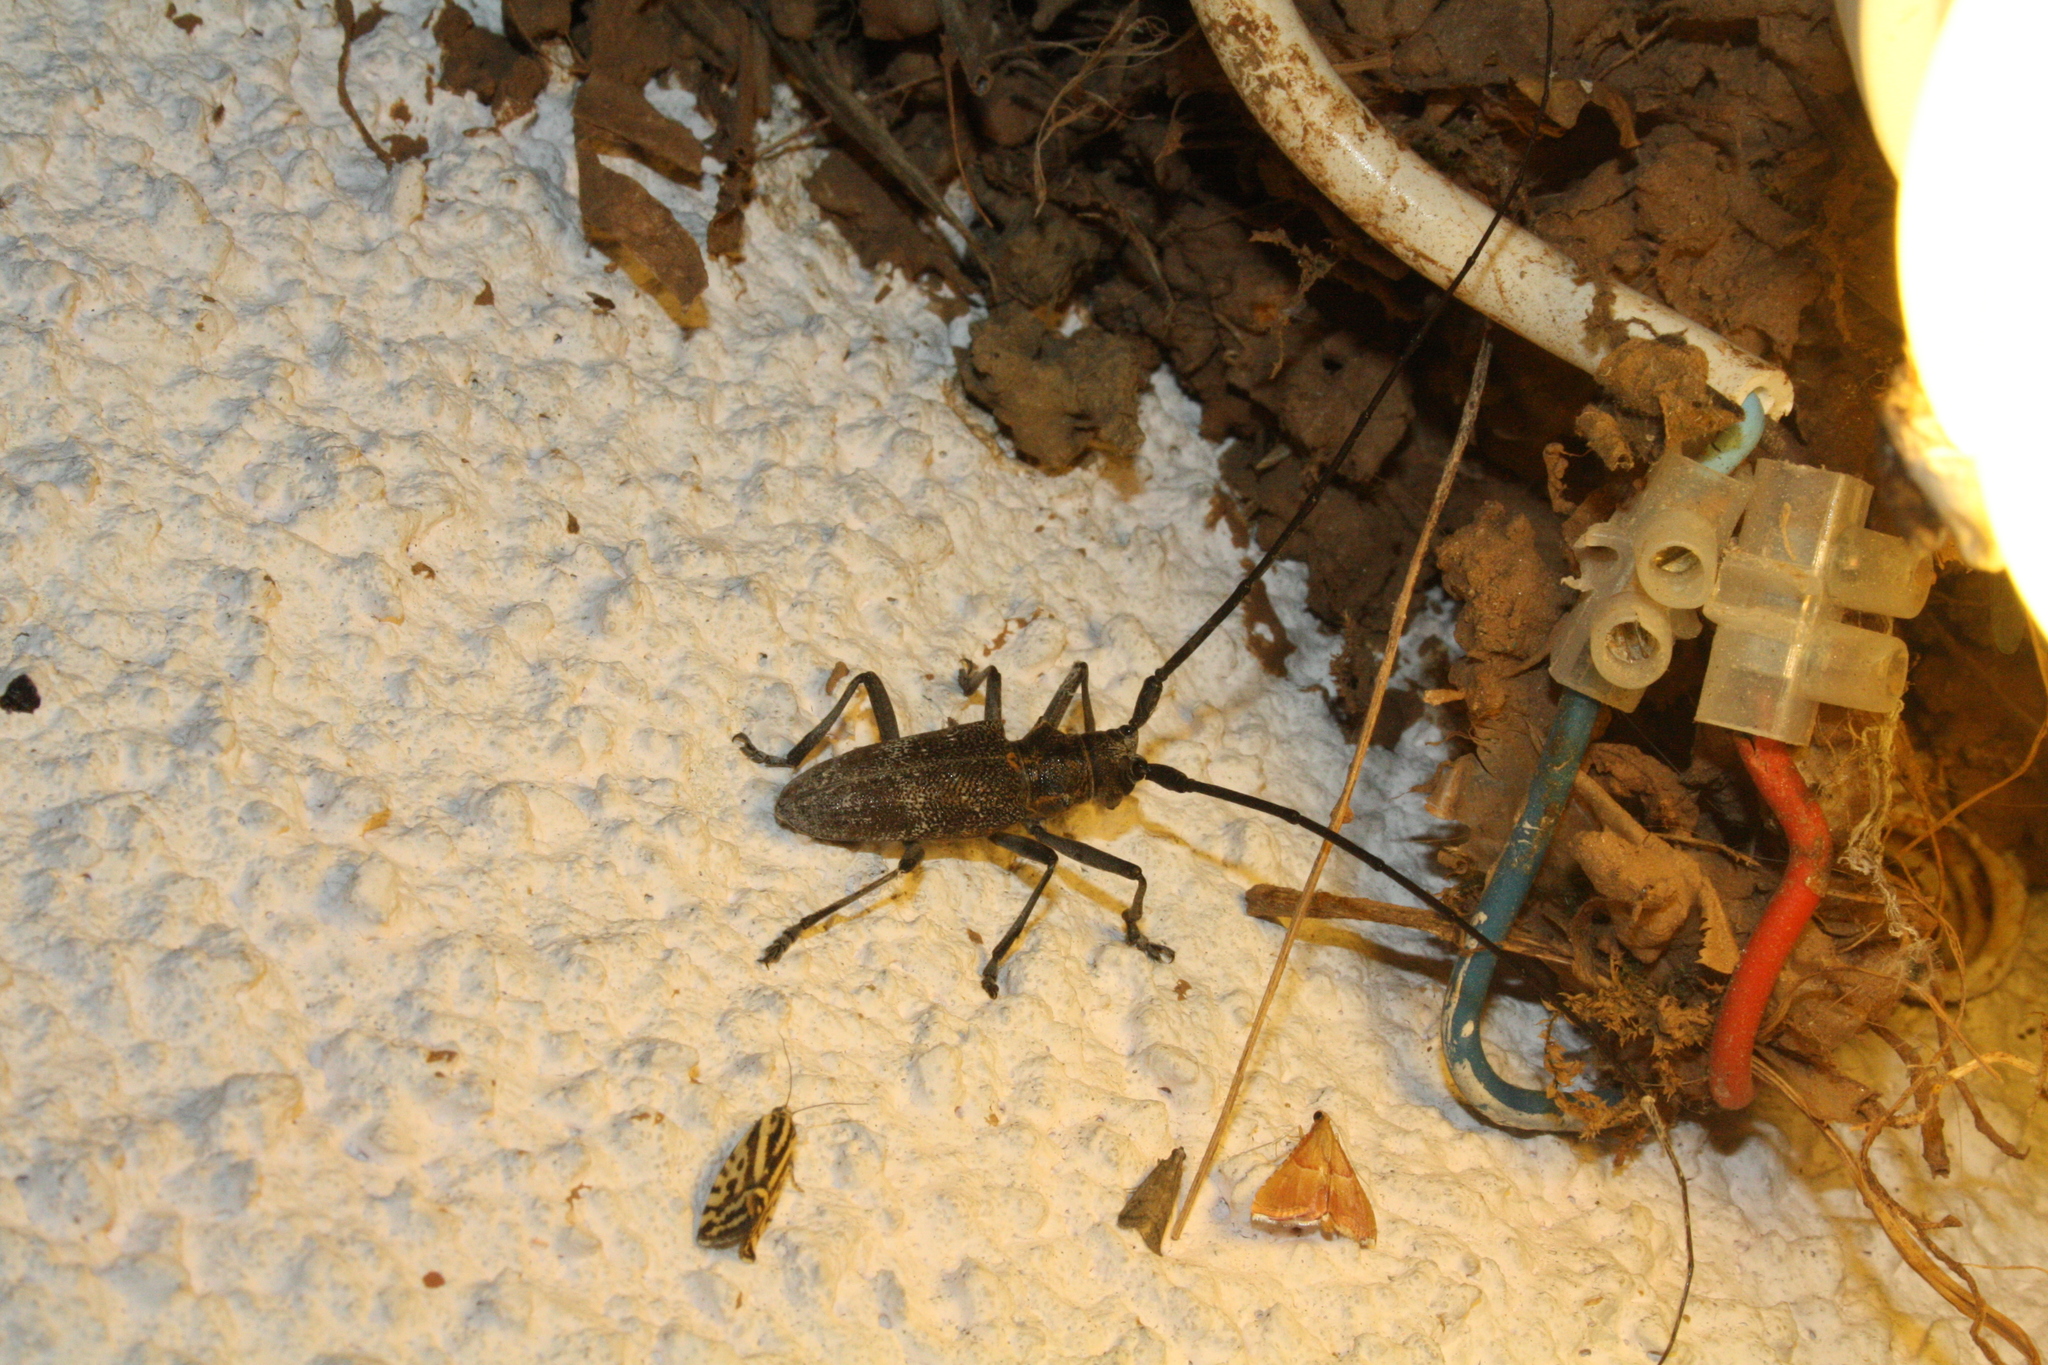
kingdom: Animalia
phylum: Arthropoda
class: Insecta
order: Coleoptera
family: Cerambycidae
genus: Monochamus
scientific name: Monochamus galloprovincialis
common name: Pine sawyer
